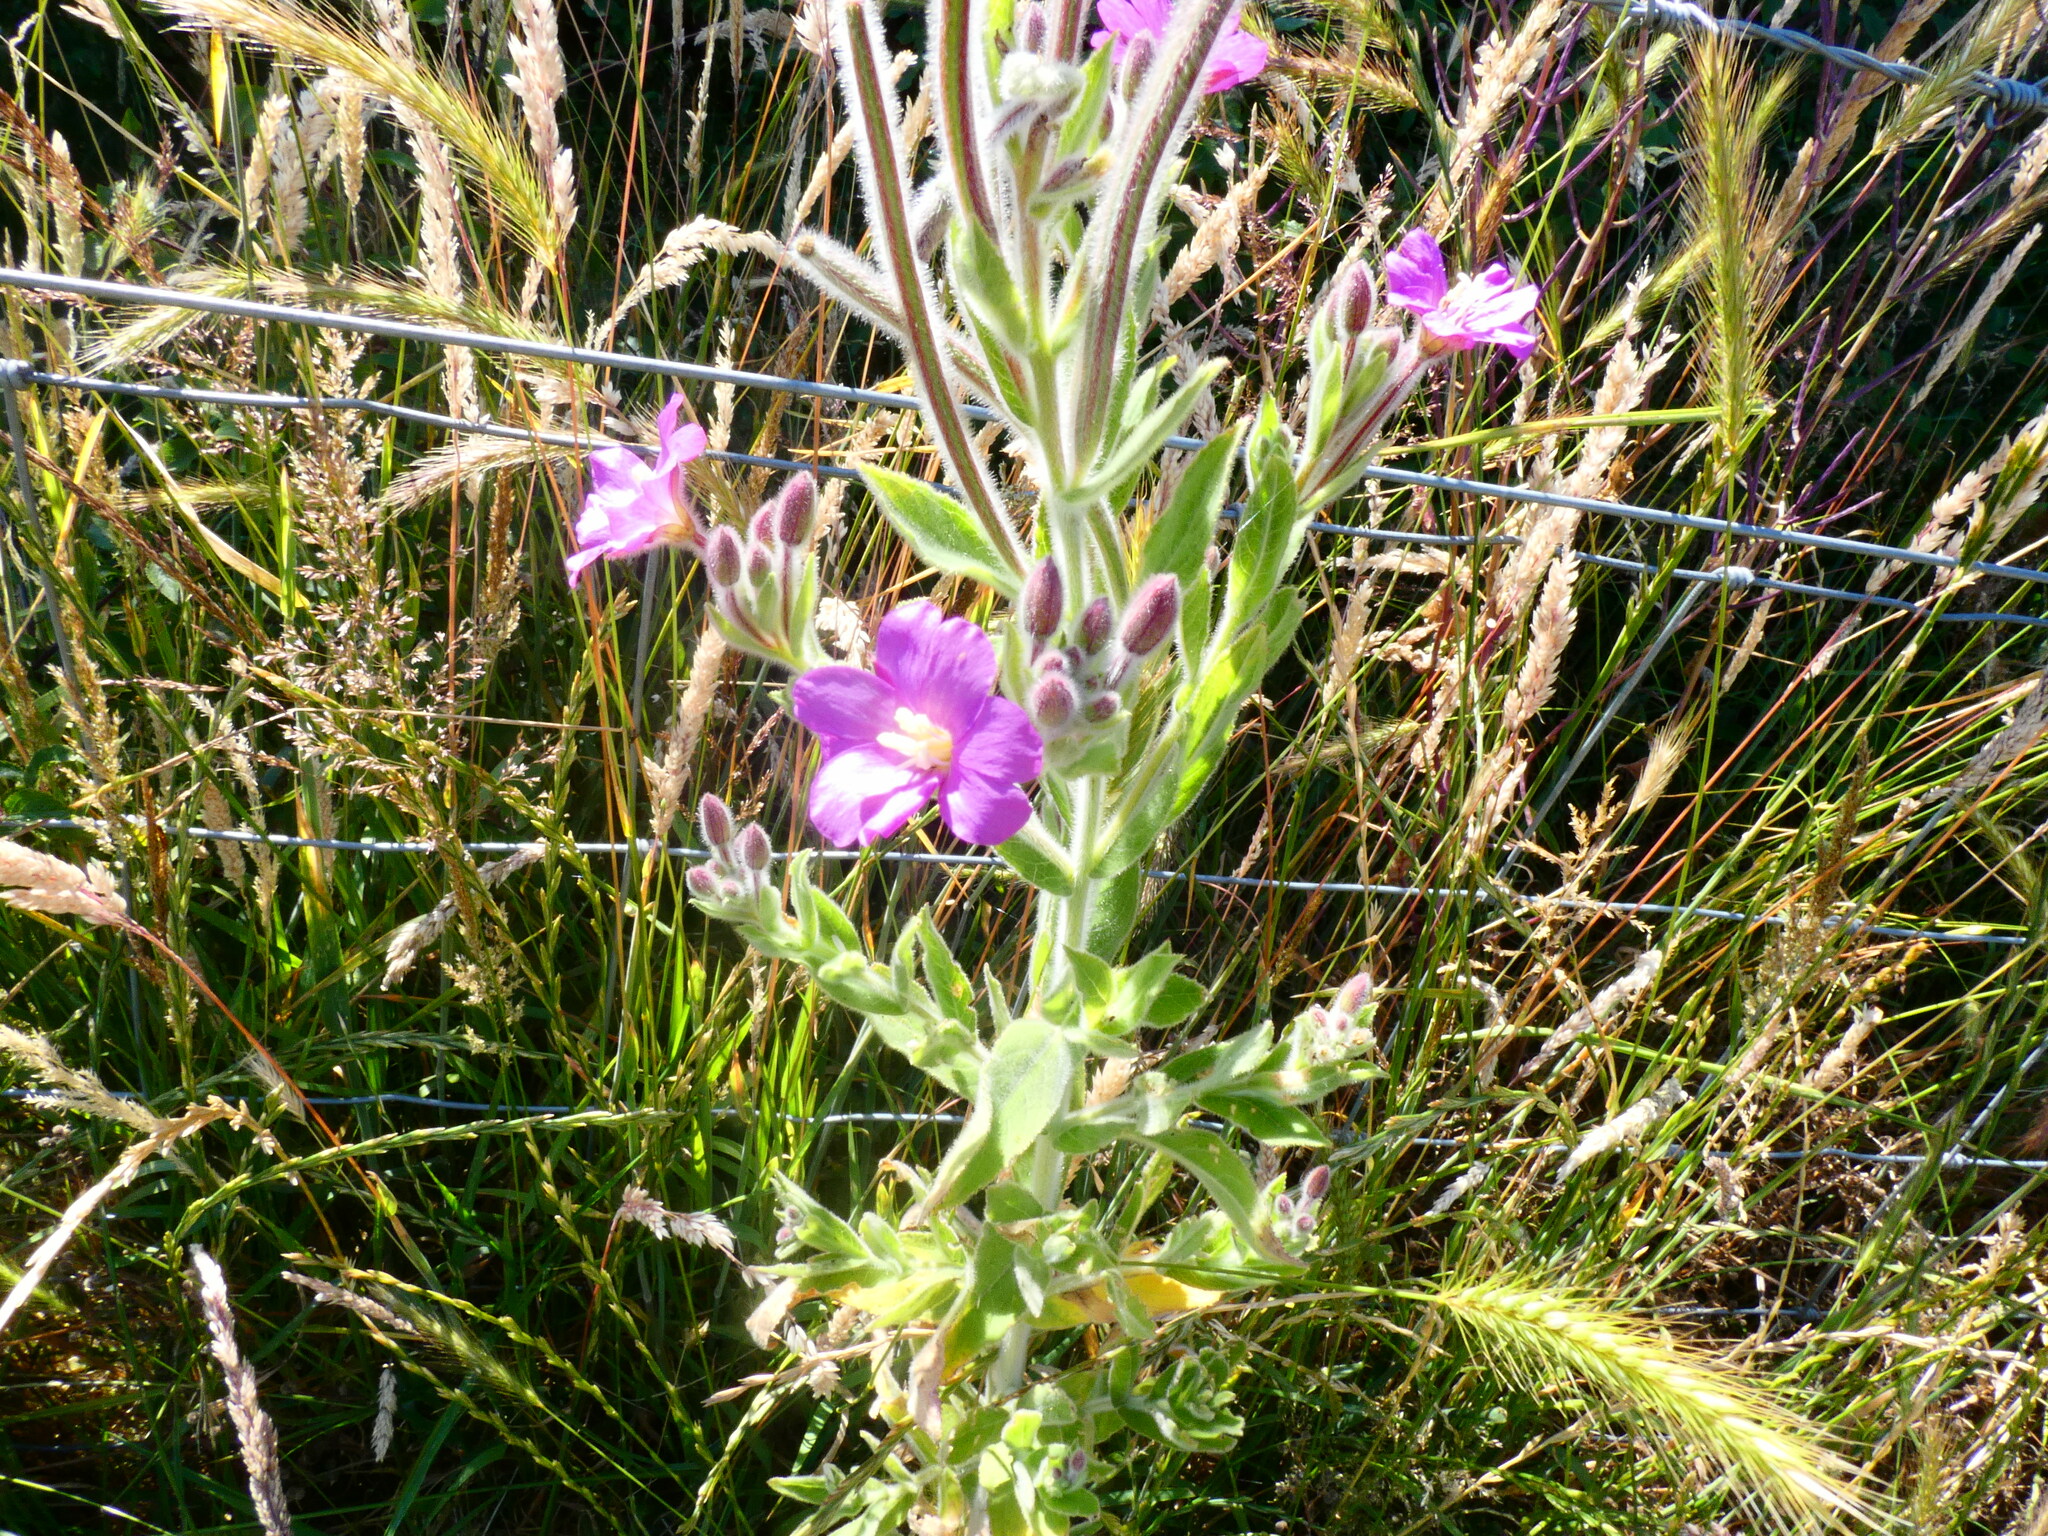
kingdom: Plantae
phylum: Tracheophyta
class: Magnoliopsida
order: Myrtales
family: Onagraceae
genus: Epilobium
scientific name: Epilobium hirsutum
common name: Great willowherb
